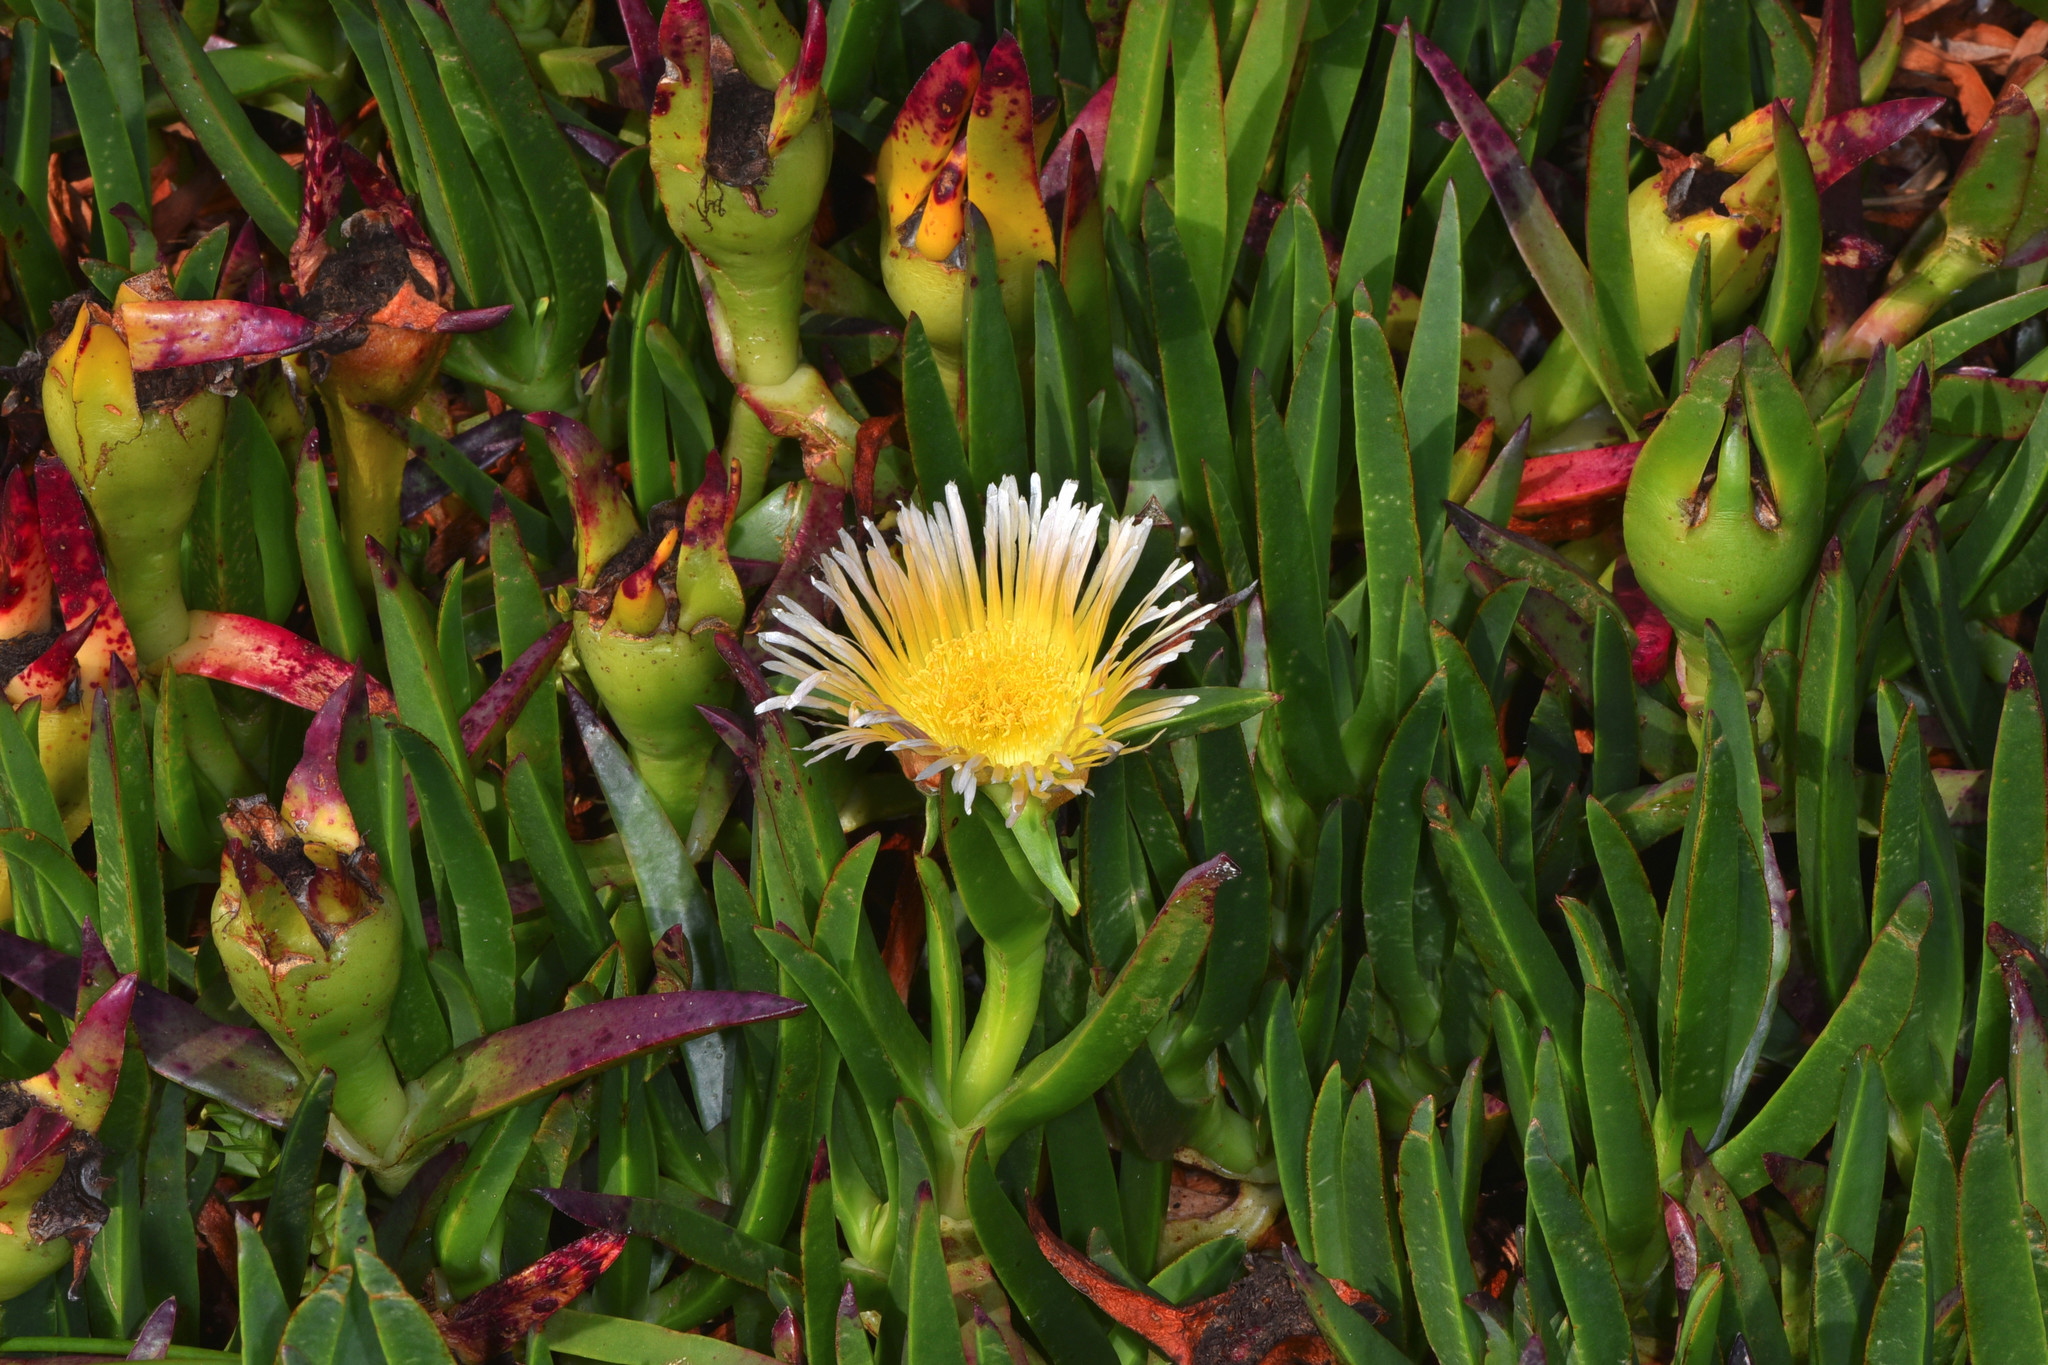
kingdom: Plantae
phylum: Tracheophyta
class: Magnoliopsida
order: Caryophyllales
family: Aizoaceae
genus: Carpobrotus
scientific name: Carpobrotus edulis
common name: Hottentot-fig
